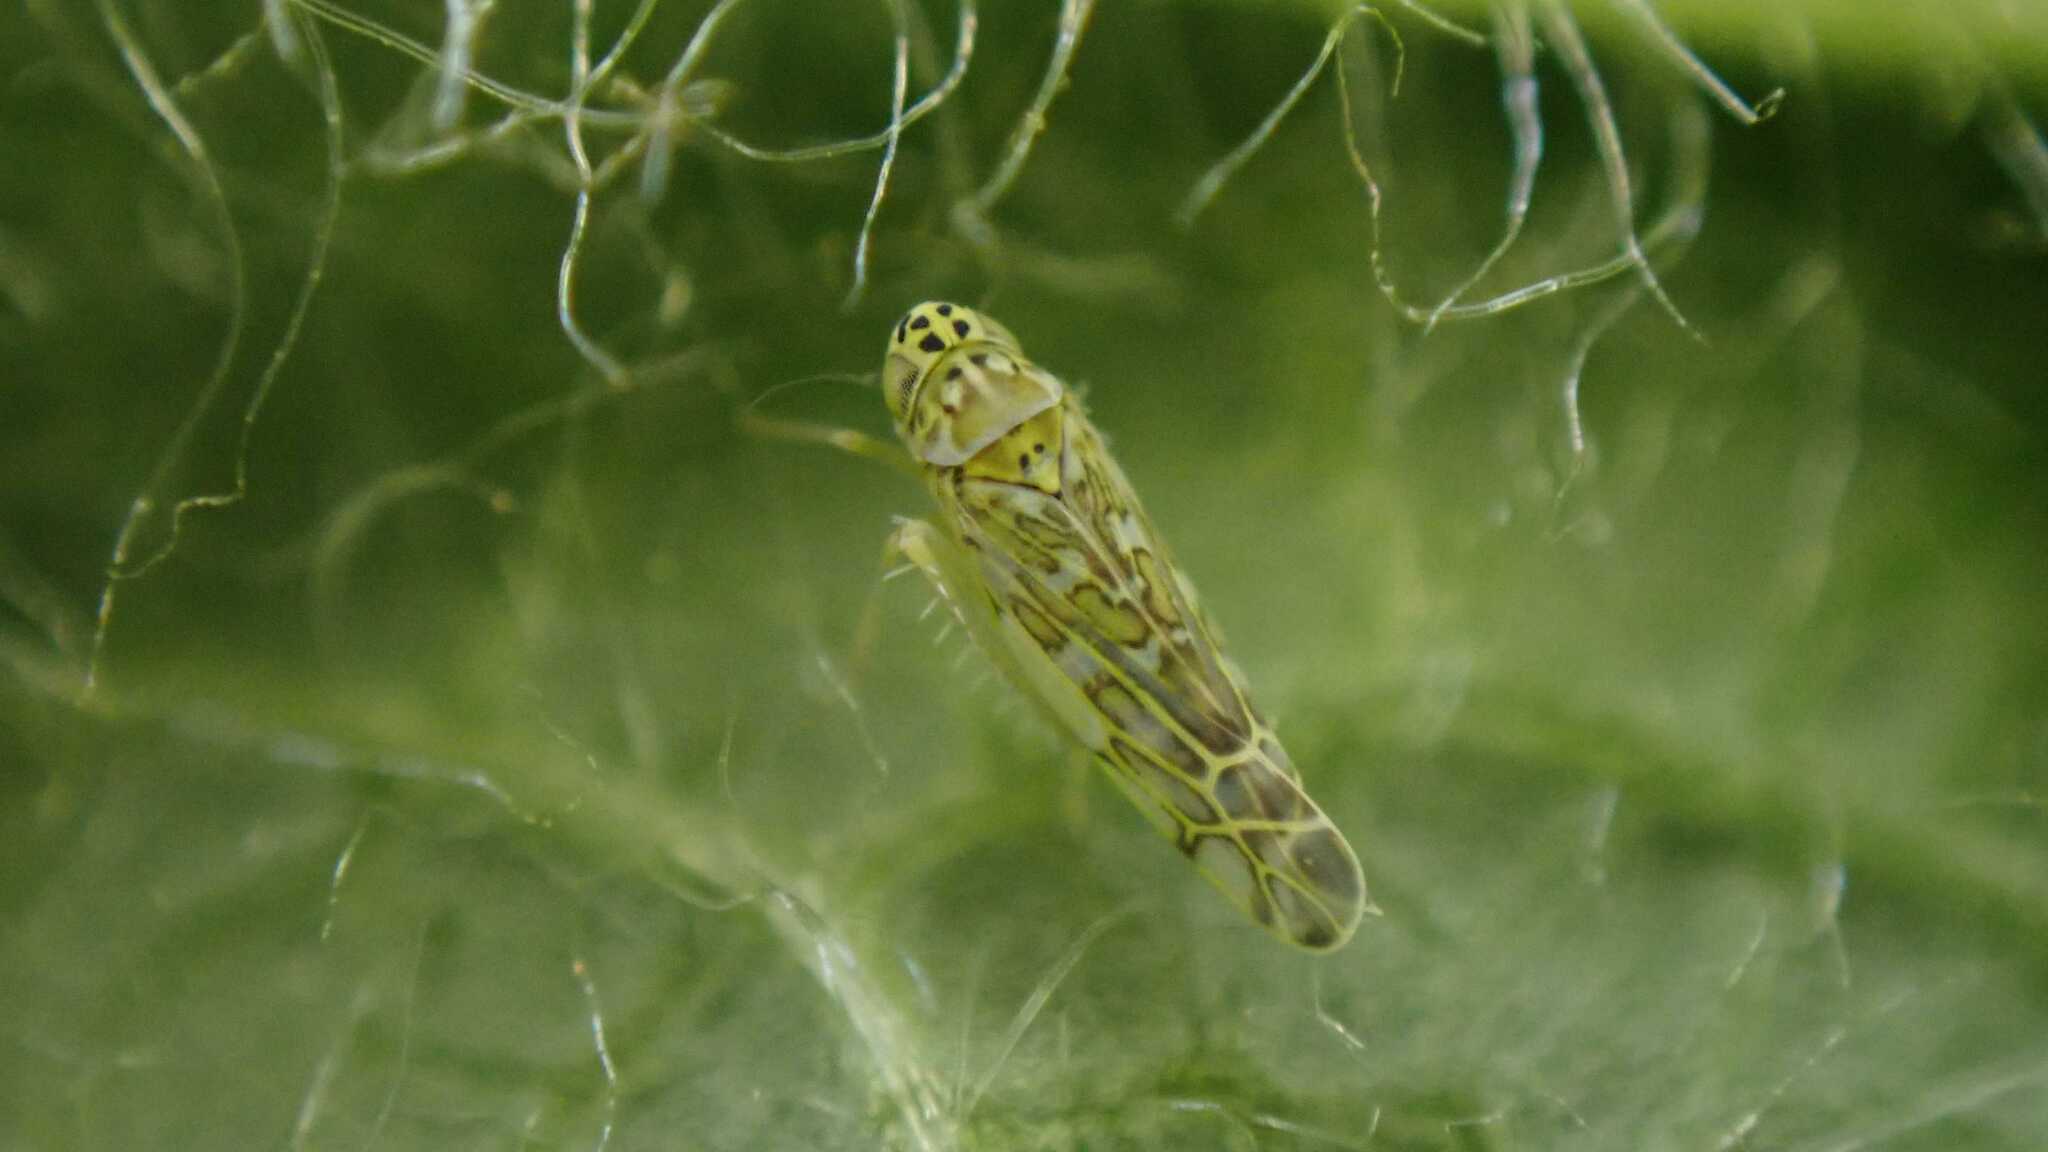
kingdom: Animalia
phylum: Arthropoda
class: Insecta
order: Hemiptera
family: Cicadellidae
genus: Eupteryx
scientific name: Eupteryx decemnotata
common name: Ligurian leafhopper
